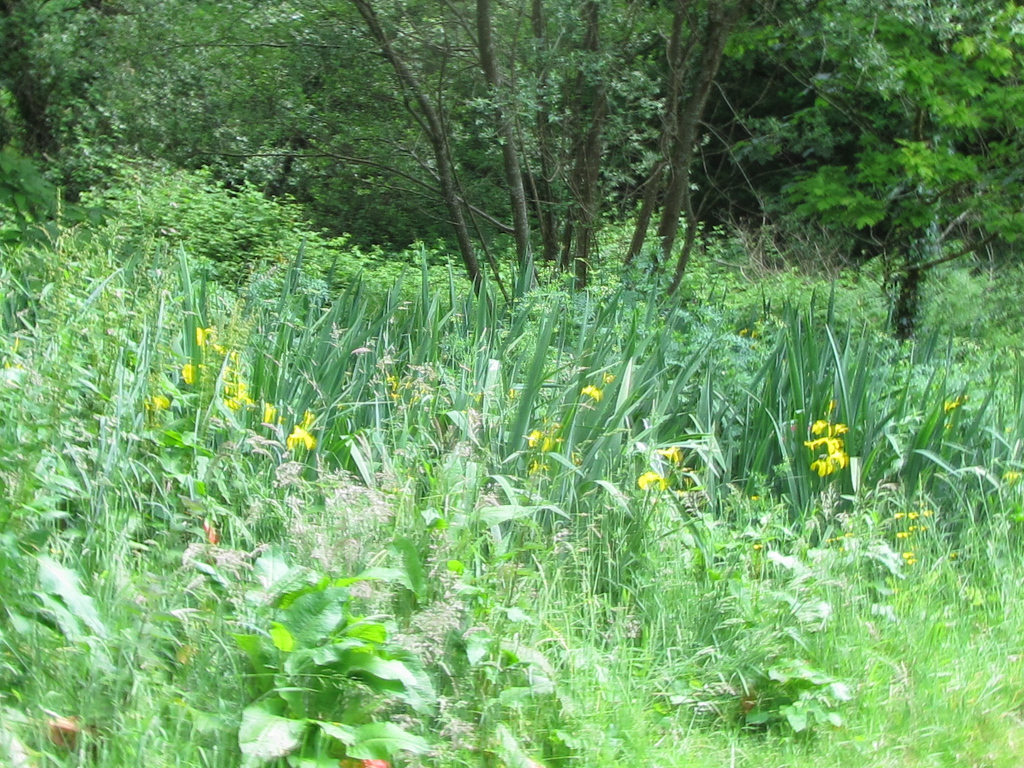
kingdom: Plantae
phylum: Tracheophyta
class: Liliopsida
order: Asparagales
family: Iridaceae
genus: Iris
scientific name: Iris pseudacorus
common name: Yellow flag
